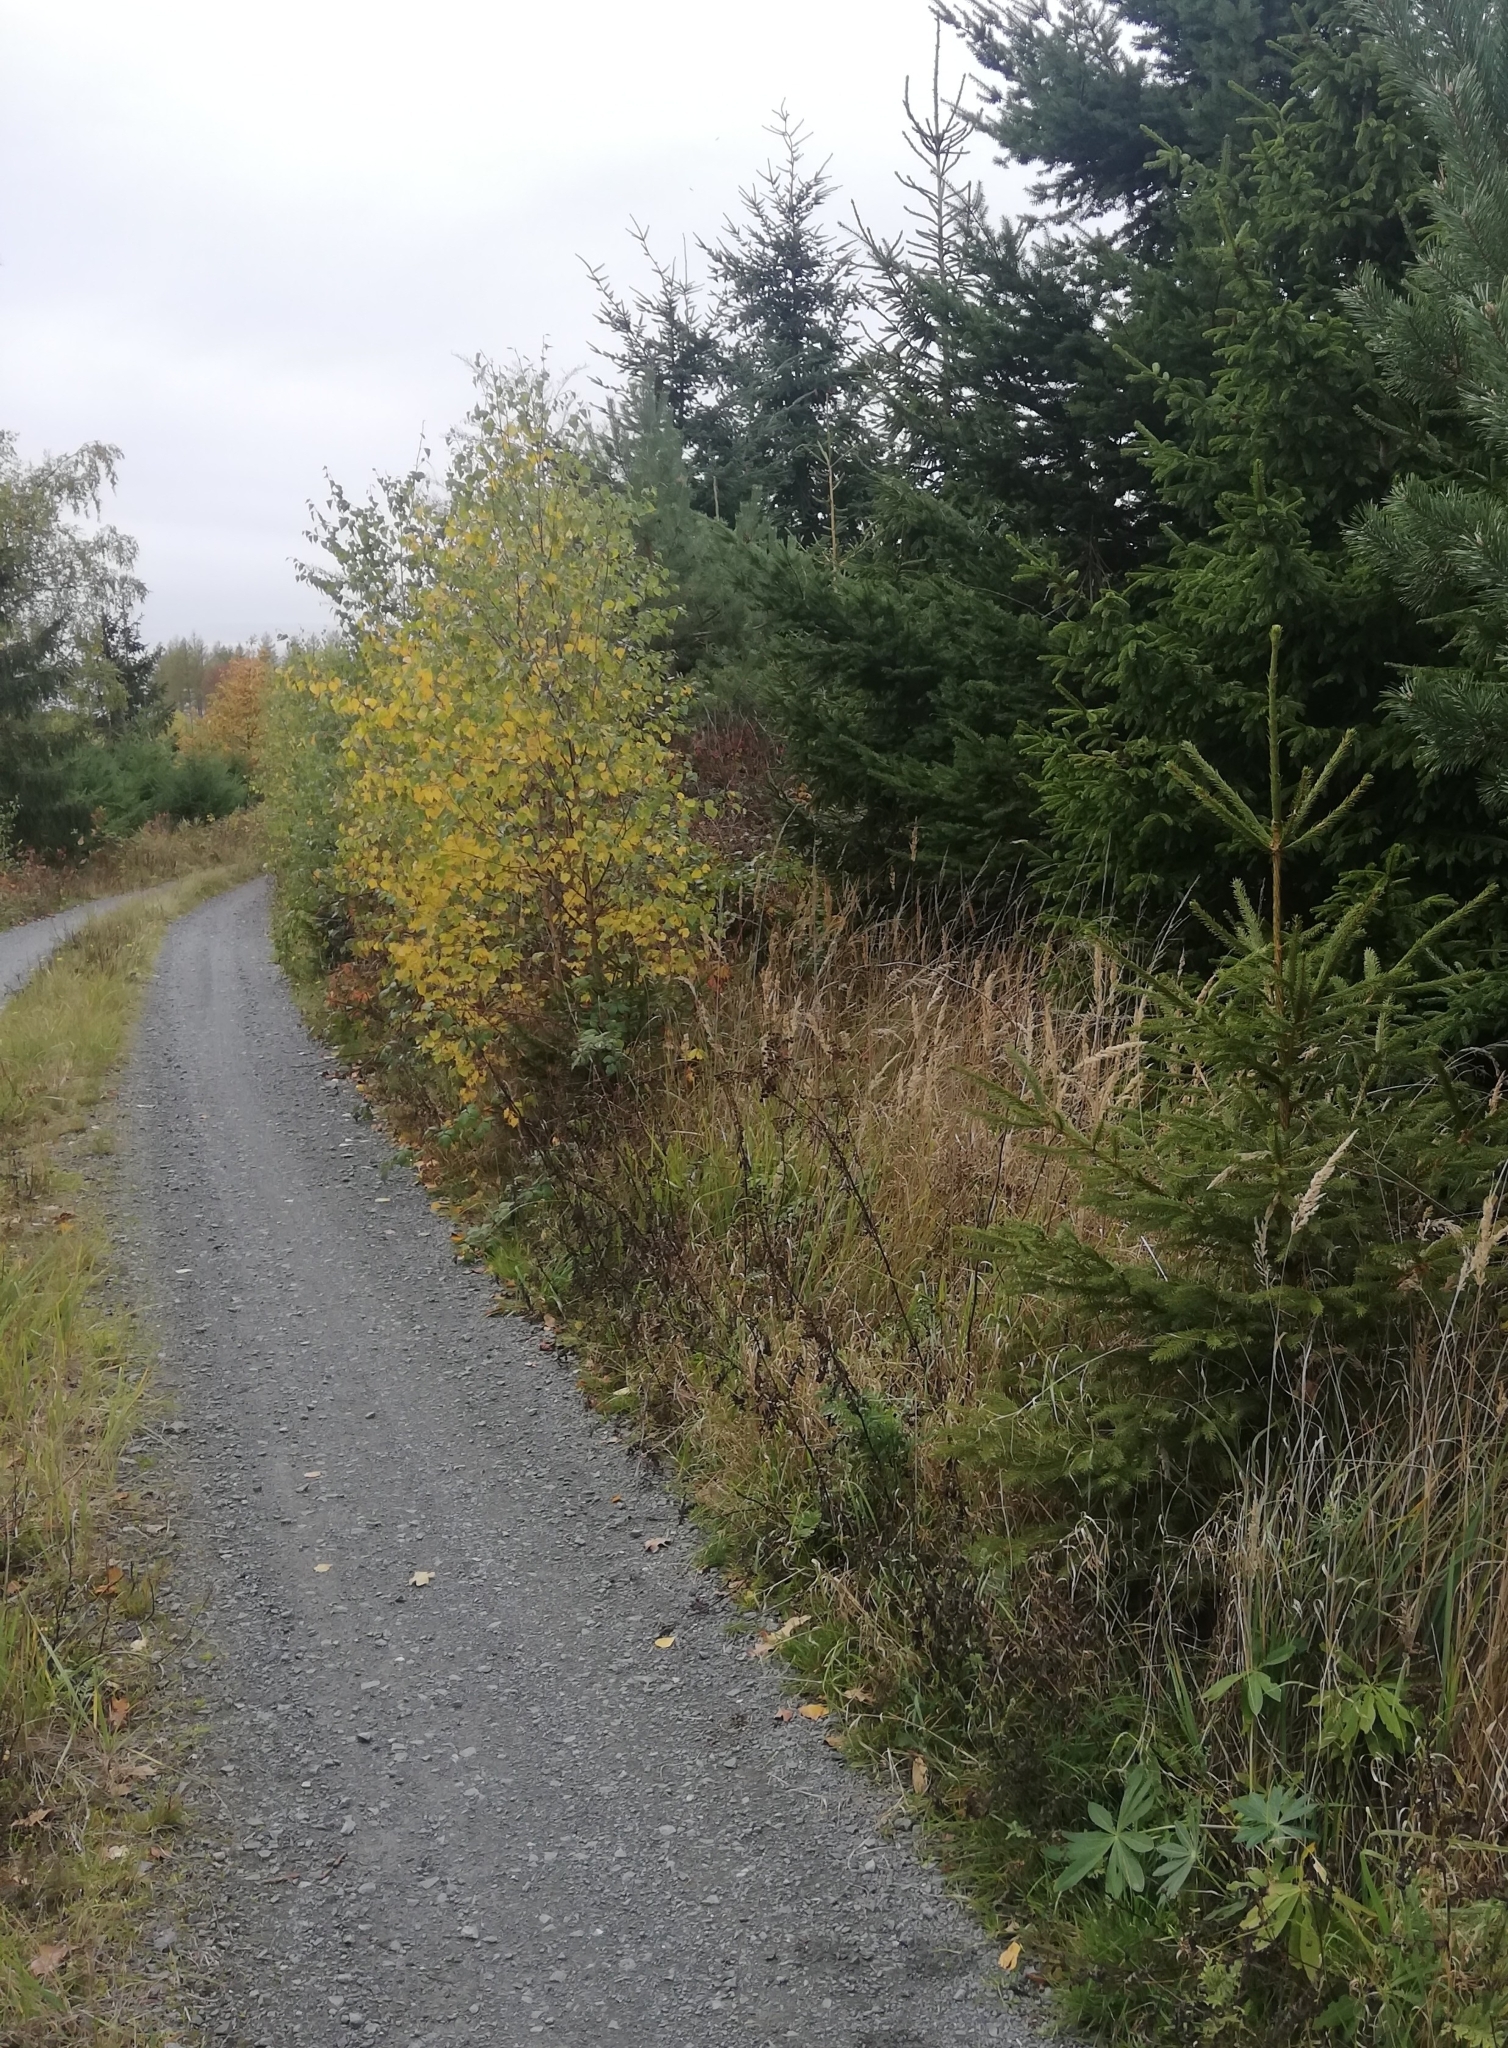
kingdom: Plantae
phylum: Tracheophyta
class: Magnoliopsida
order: Fabales
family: Fabaceae
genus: Lupinus
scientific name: Lupinus polyphyllus
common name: Garden lupin
